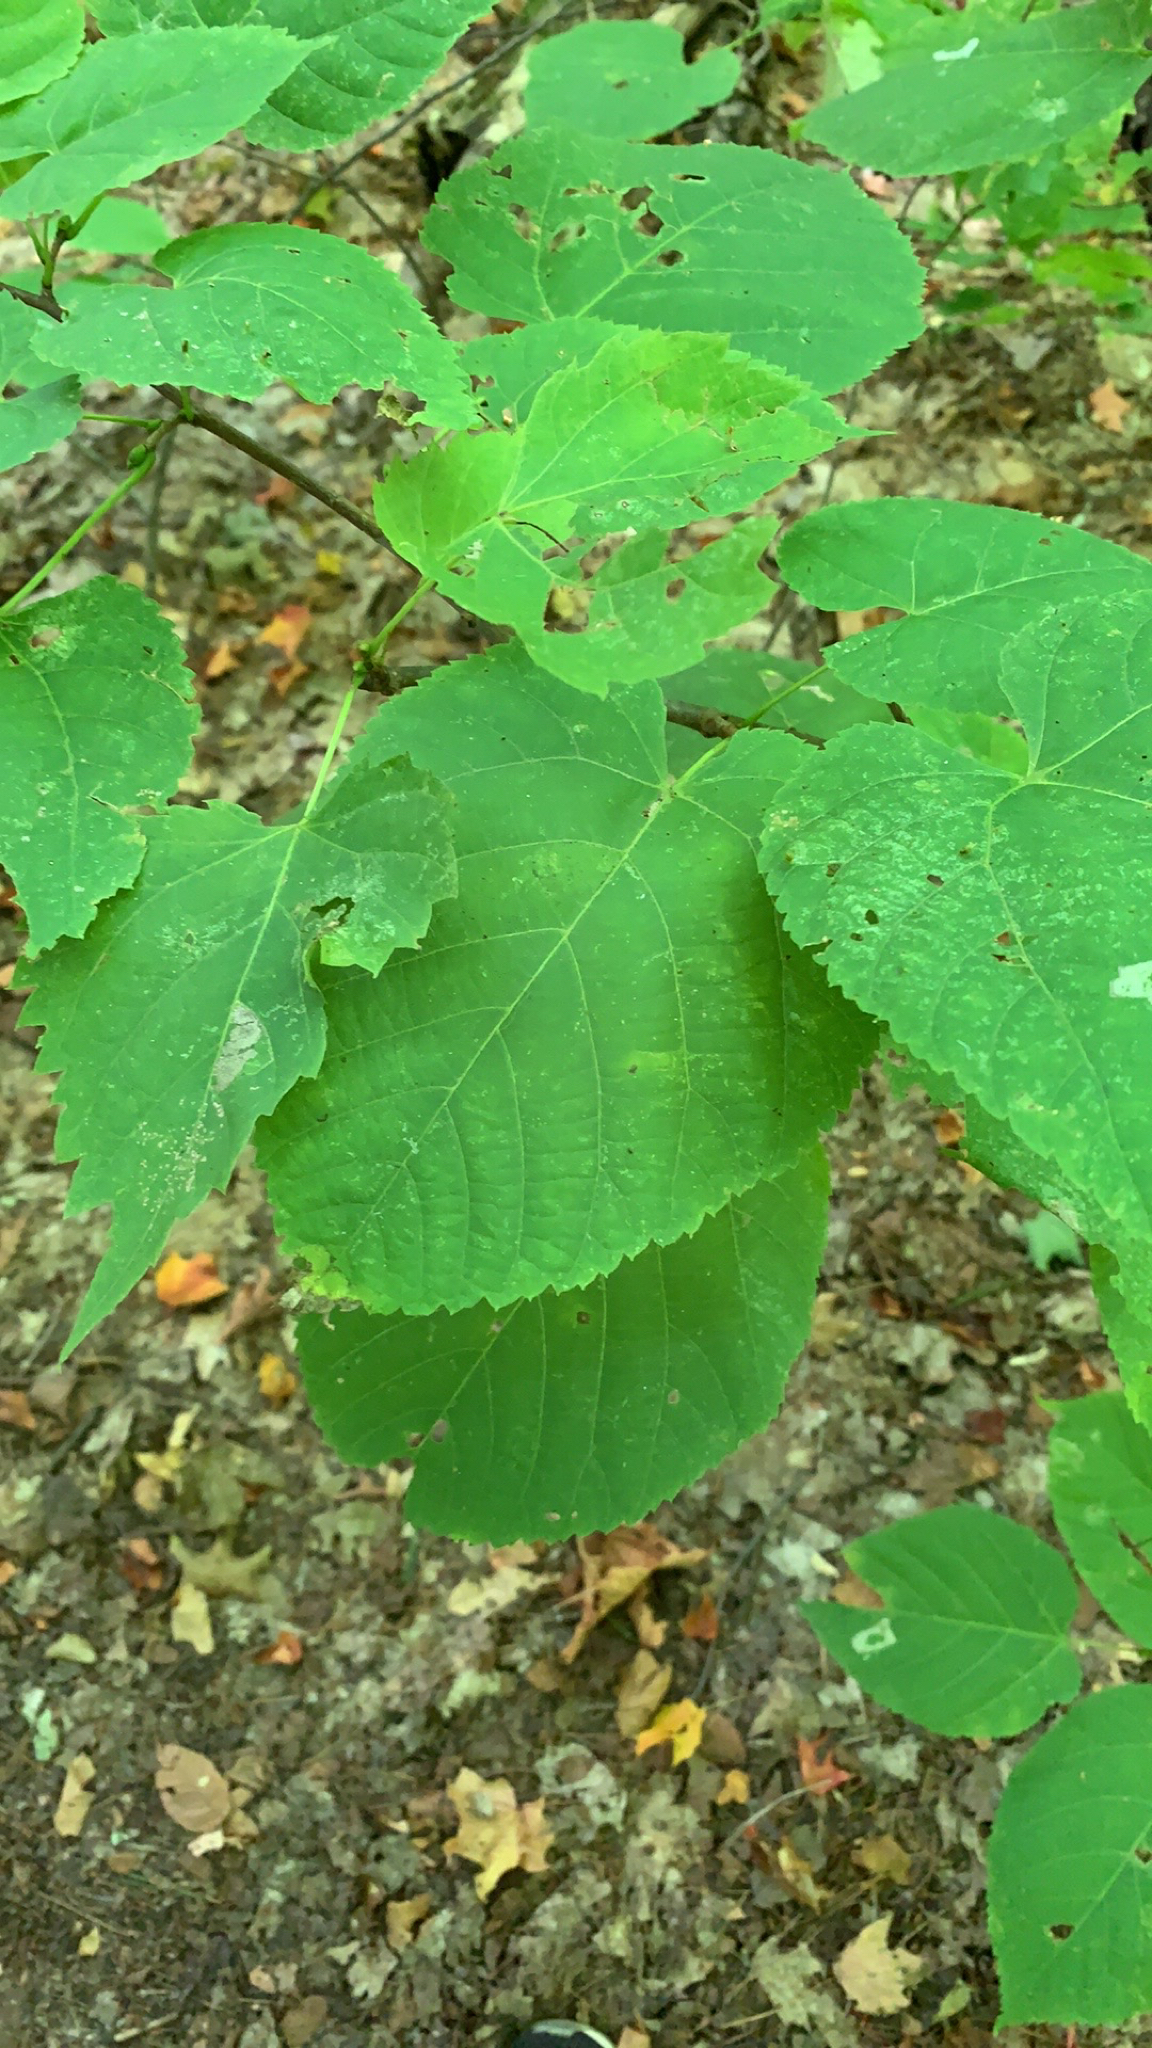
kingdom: Plantae
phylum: Tracheophyta
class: Magnoliopsida
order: Malvales
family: Malvaceae
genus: Tilia
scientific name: Tilia americana
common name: Basswood
